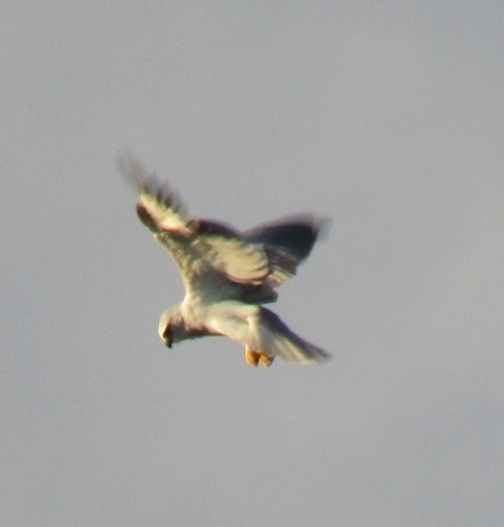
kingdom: Animalia
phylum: Chordata
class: Aves
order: Accipitriformes
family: Accipitridae
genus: Elanus
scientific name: Elanus caeruleus
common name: Black-winged kite
